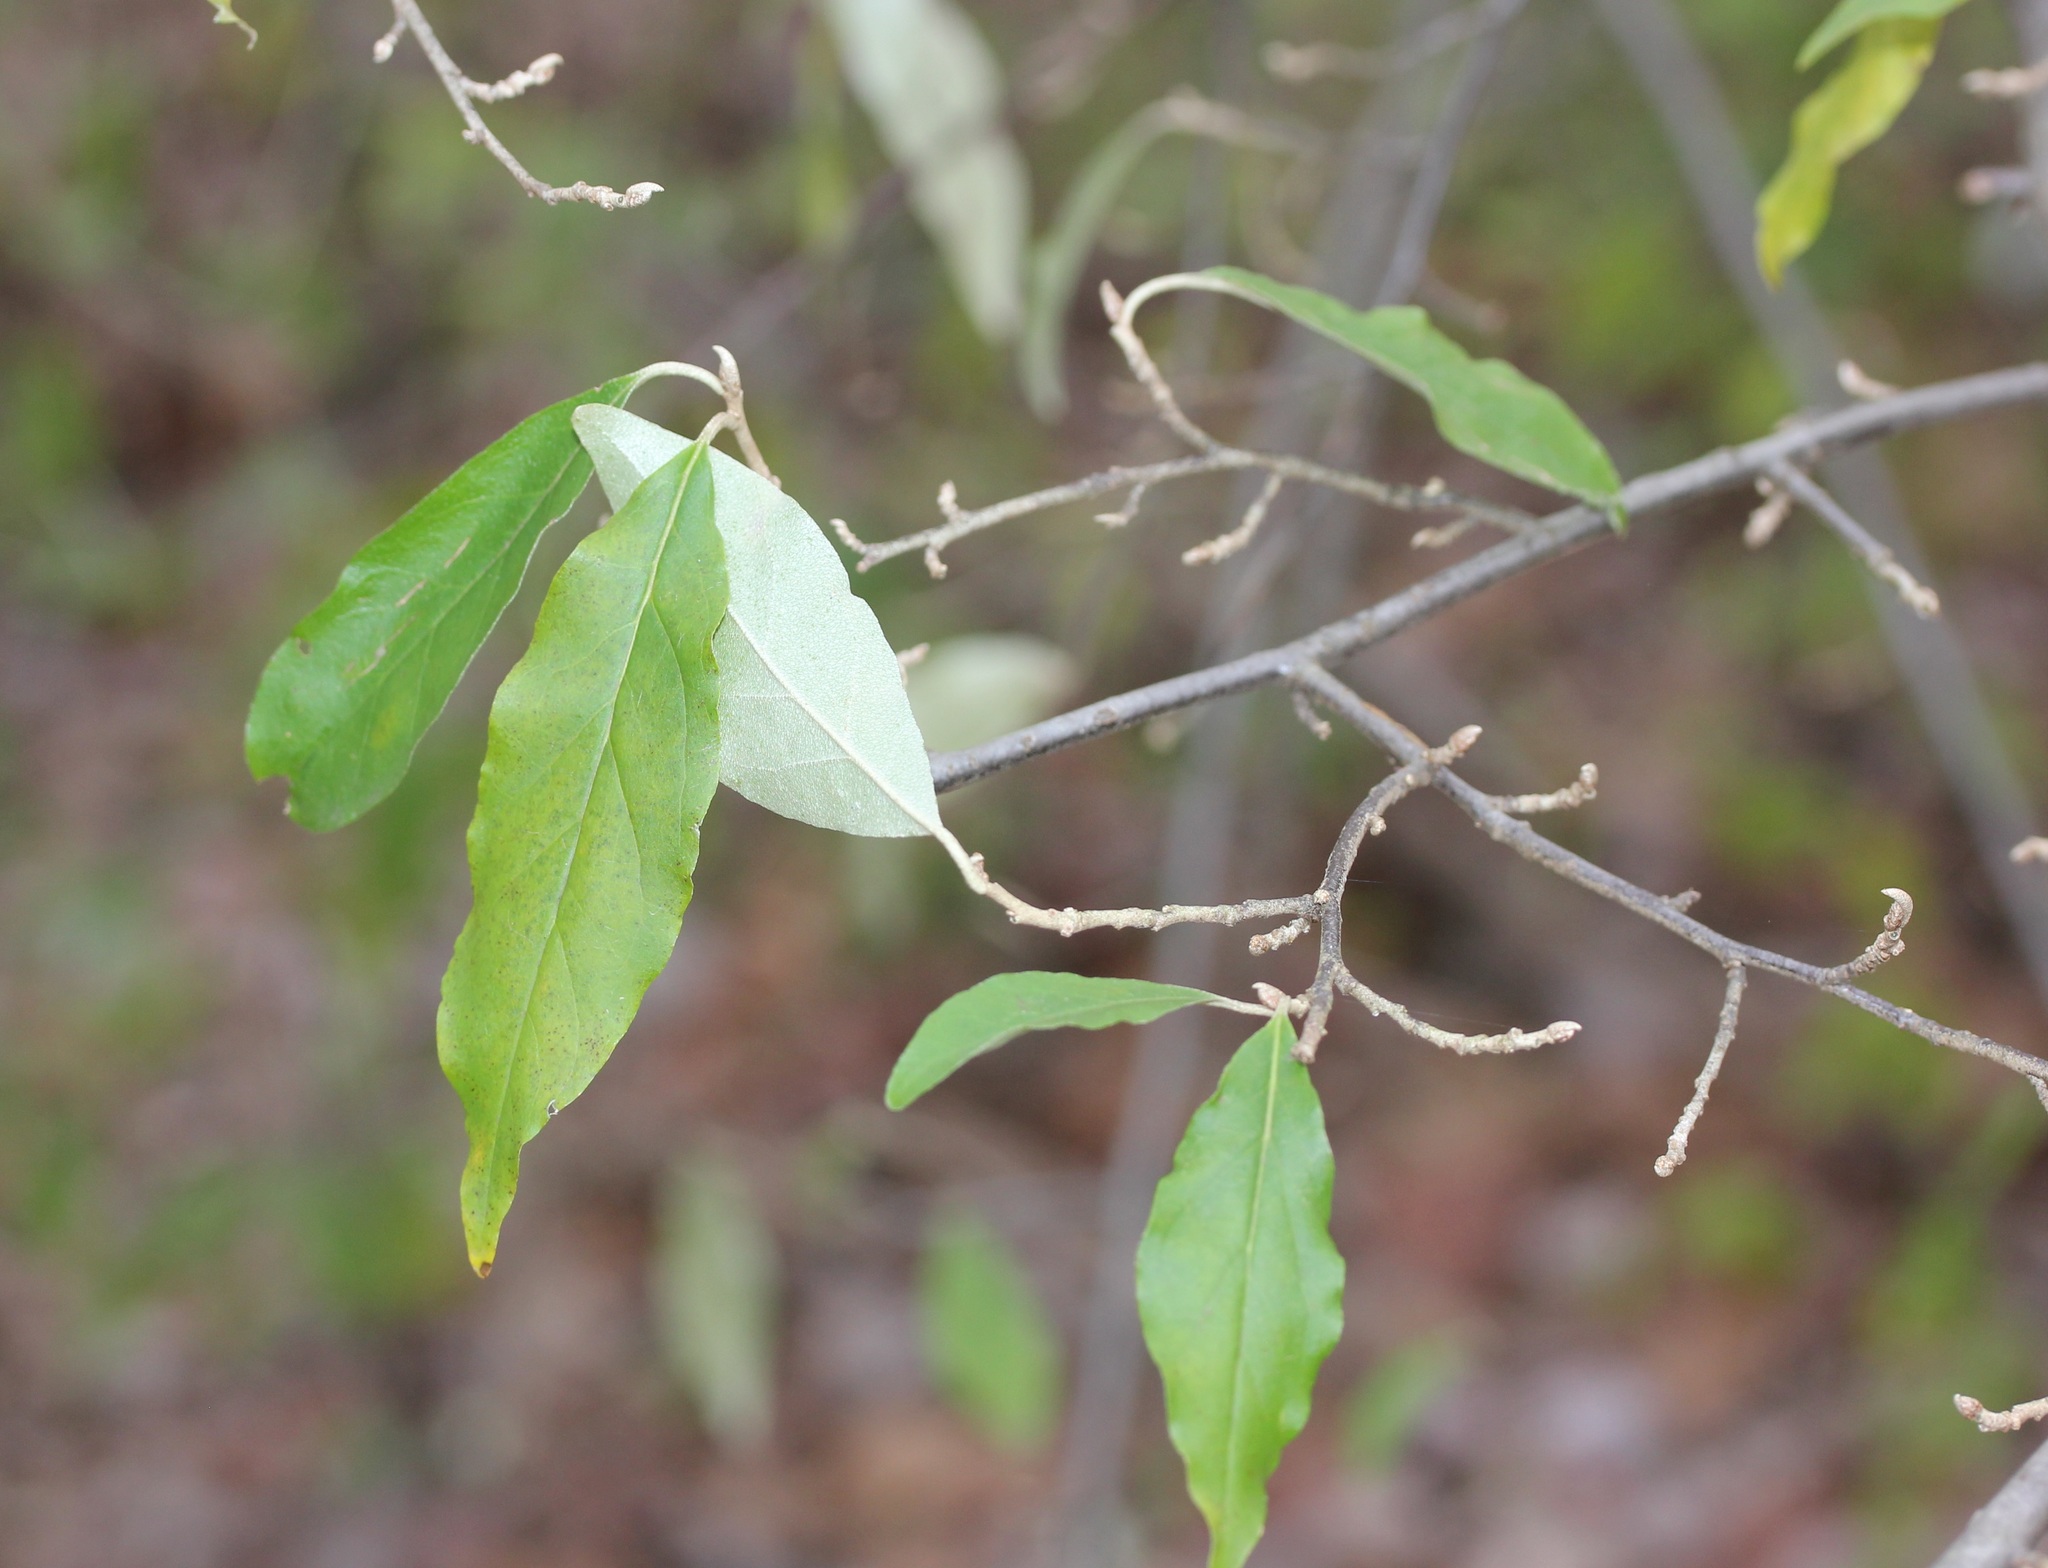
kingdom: Plantae
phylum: Tracheophyta
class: Magnoliopsida
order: Rosales
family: Elaeagnaceae
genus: Elaeagnus
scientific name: Elaeagnus umbellata
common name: Autumn olive
